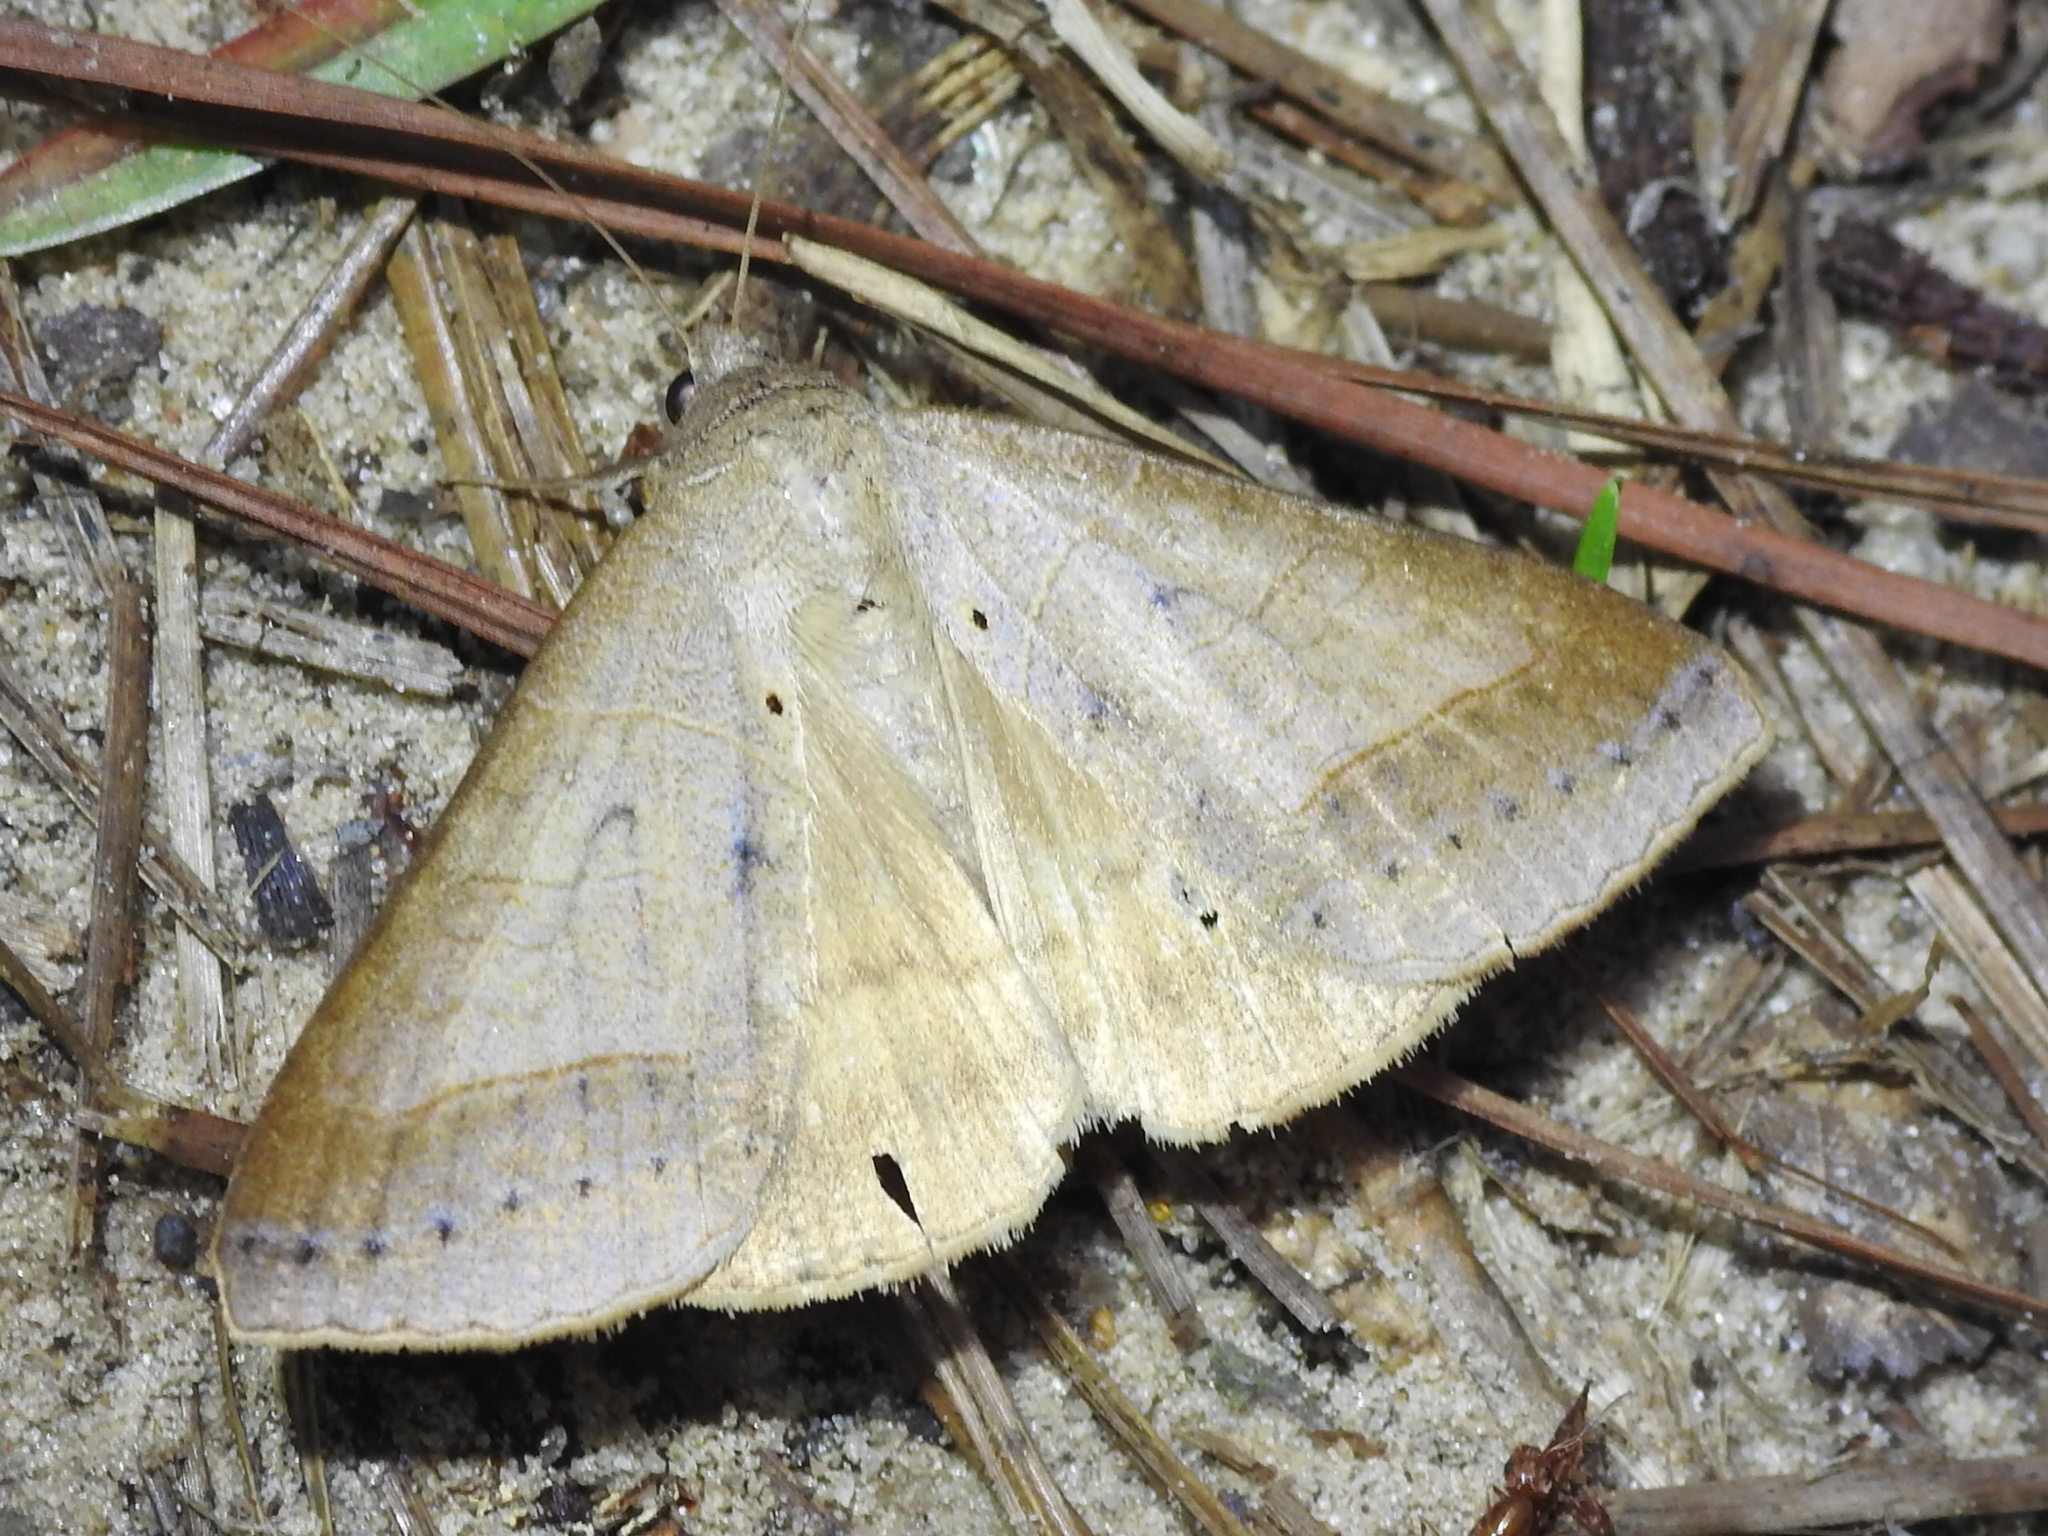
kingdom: Animalia
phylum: Arthropoda
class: Insecta
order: Lepidoptera
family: Erebidae
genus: Mocis
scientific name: Mocis marcida
